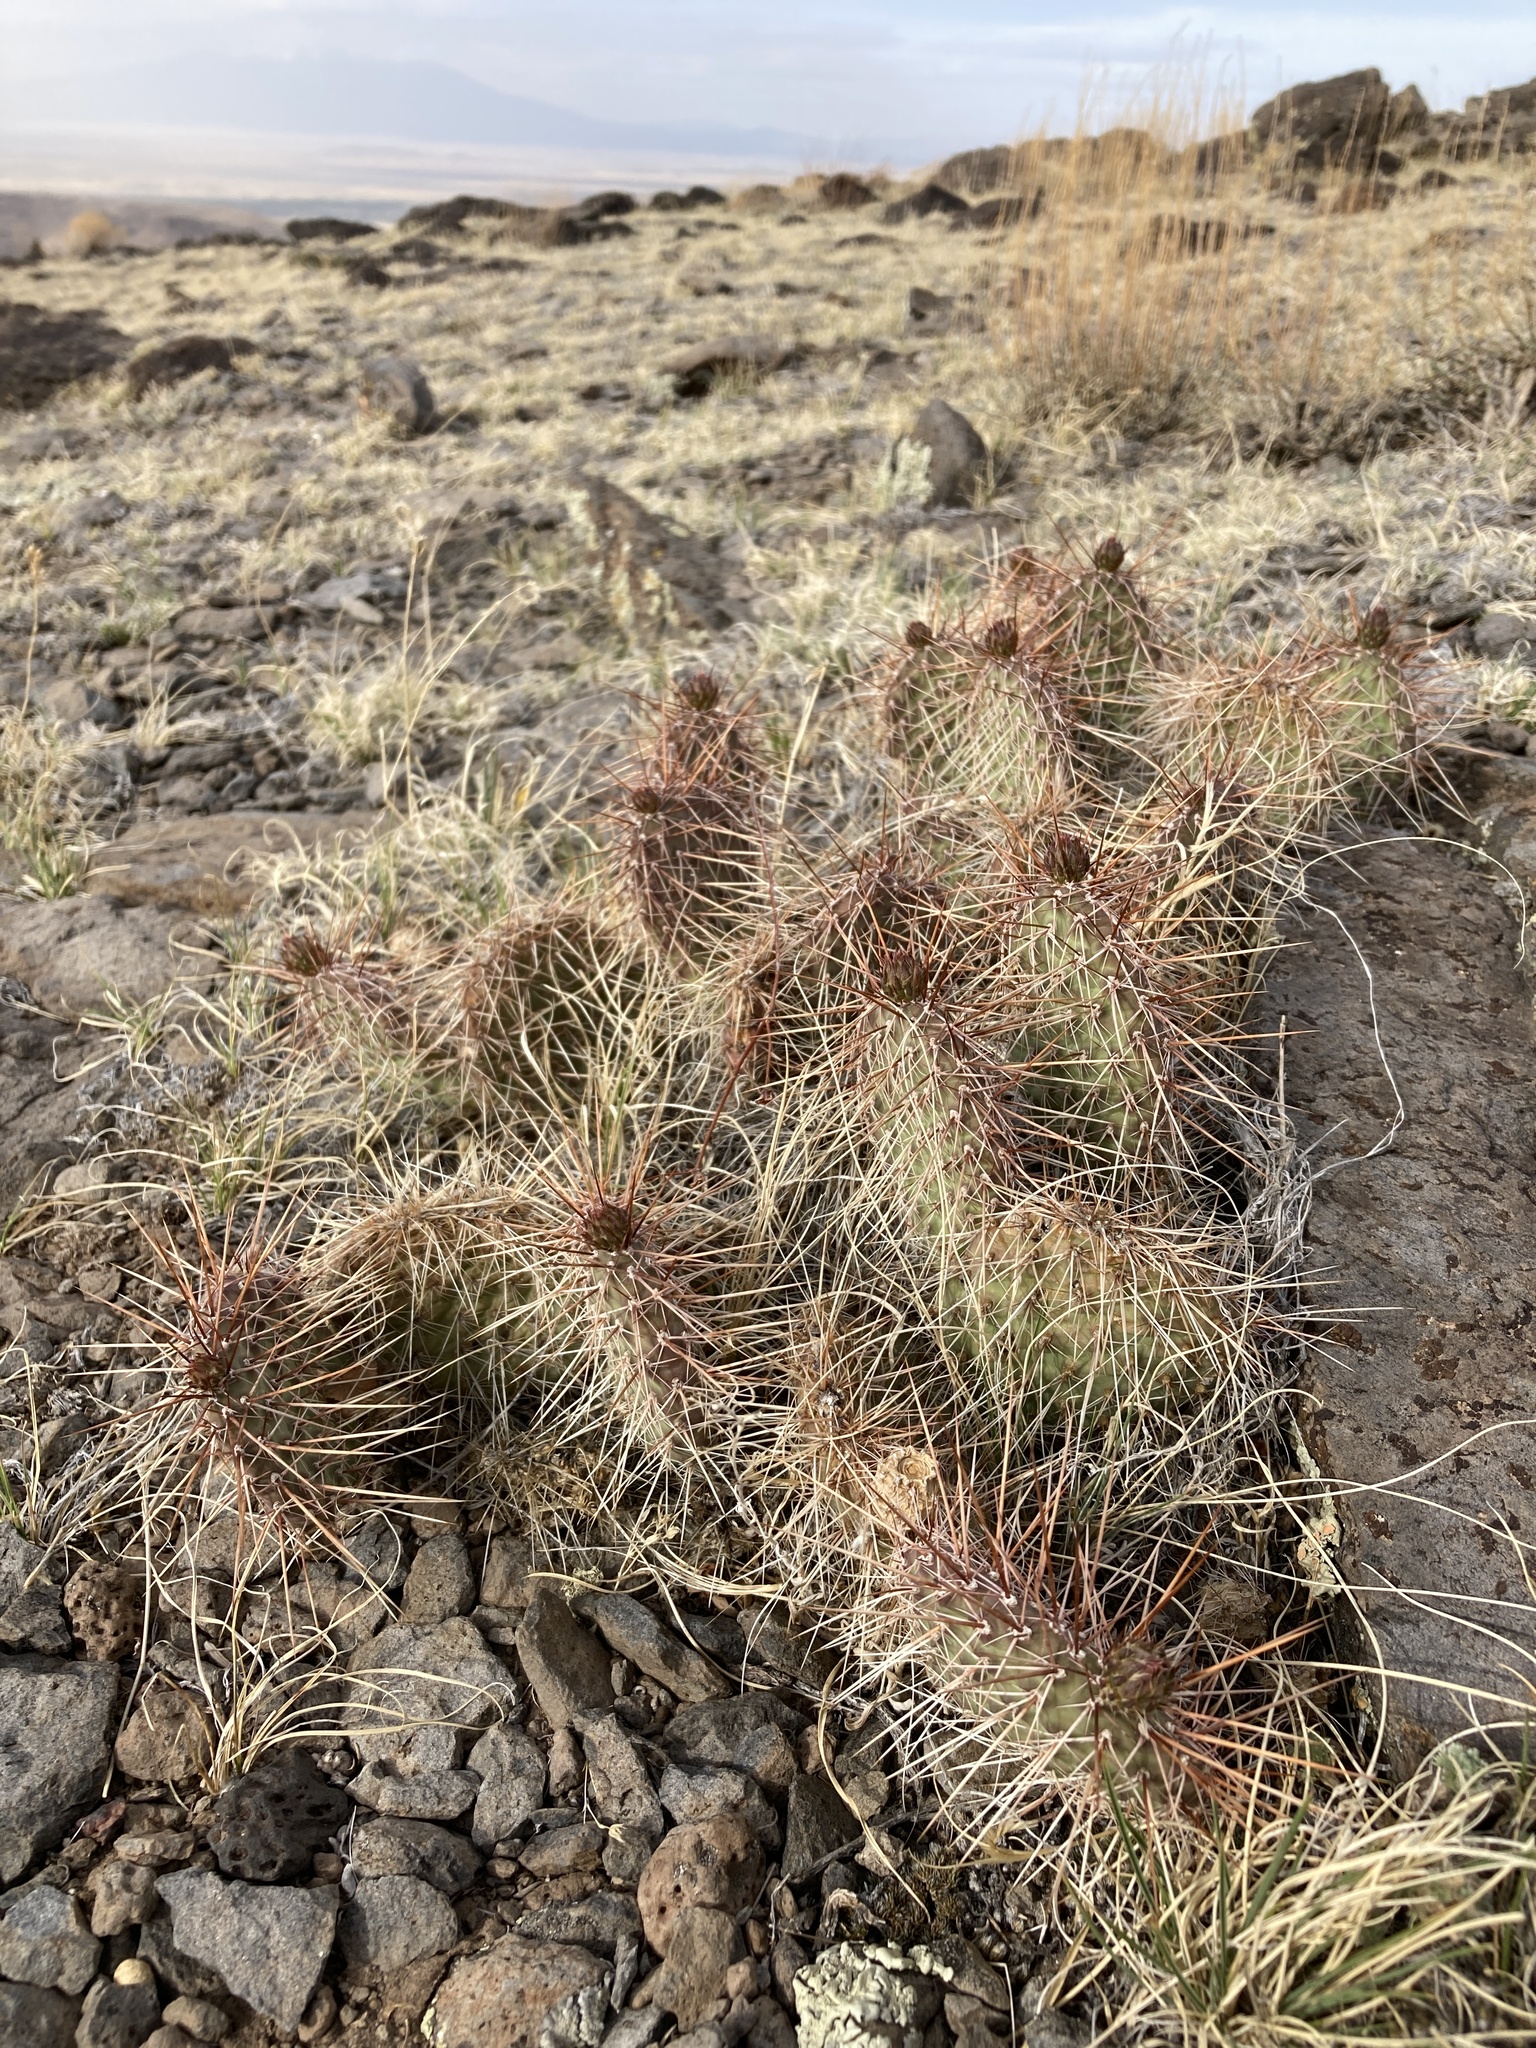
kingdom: Plantae
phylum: Tracheophyta
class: Magnoliopsida
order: Caryophyllales
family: Cactaceae
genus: Opuntia
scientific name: Opuntia polyacantha
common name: Plains prickly-pear
